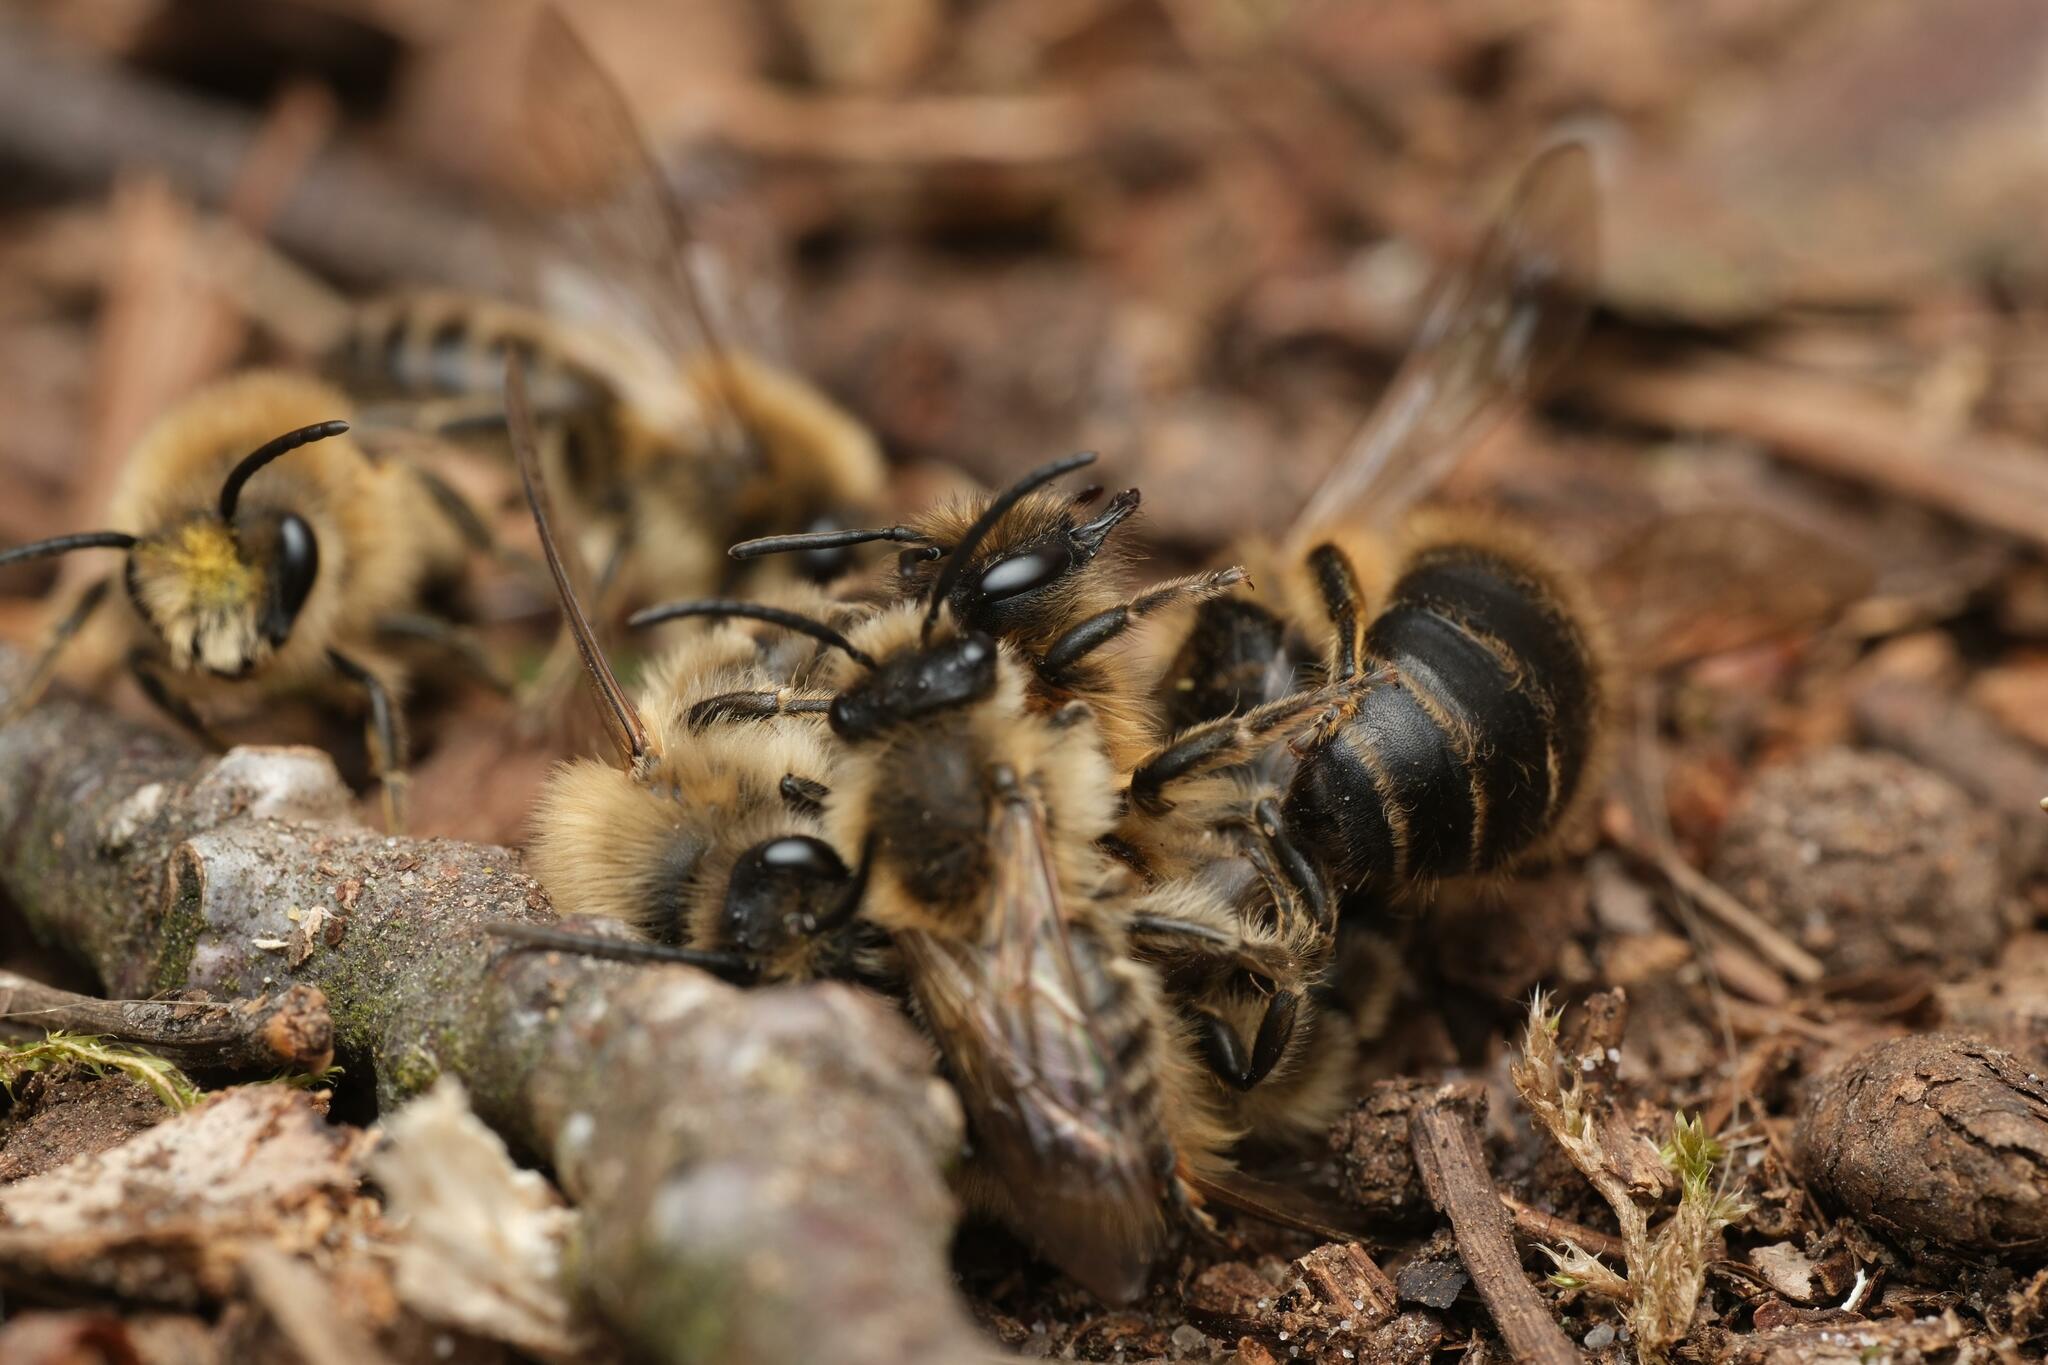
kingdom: Animalia
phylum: Arthropoda
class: Insecta
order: Hymenoptera
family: Colletidae
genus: Colletes
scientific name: Colletes cunicularius
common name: Early colletes
